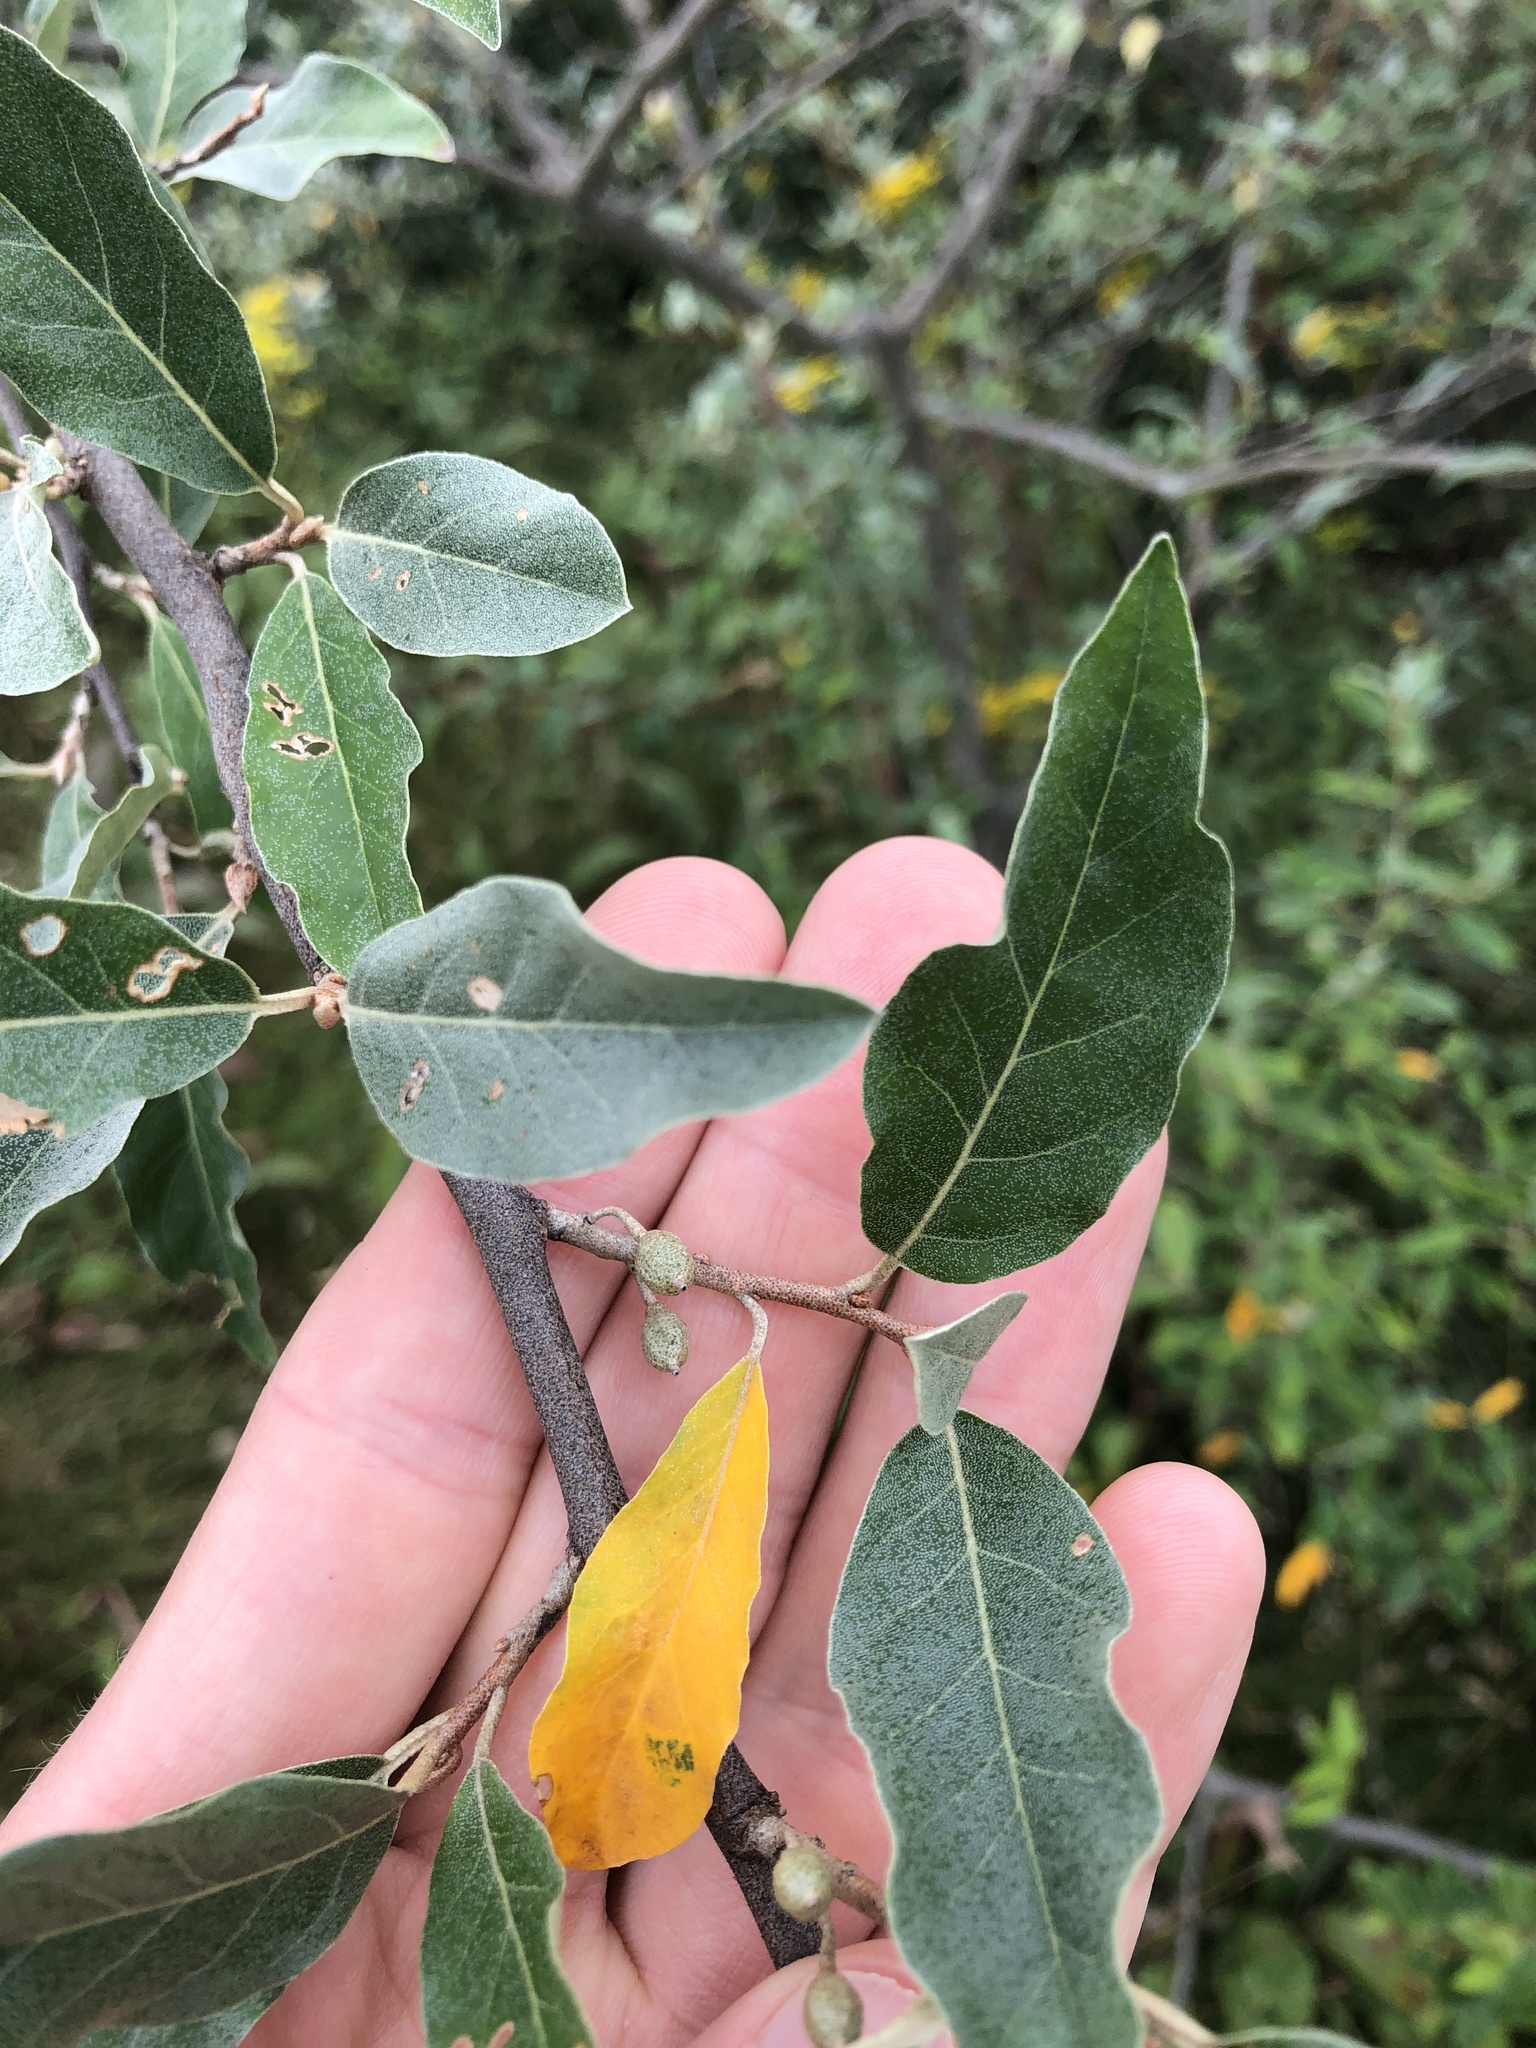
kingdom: Plantae
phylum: Tracheophyta
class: Magnoliopsida
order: Rosales
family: Elaeagnaceae
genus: Elaeagnus
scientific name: Elaeagnus umbellata
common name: Autumn olive
